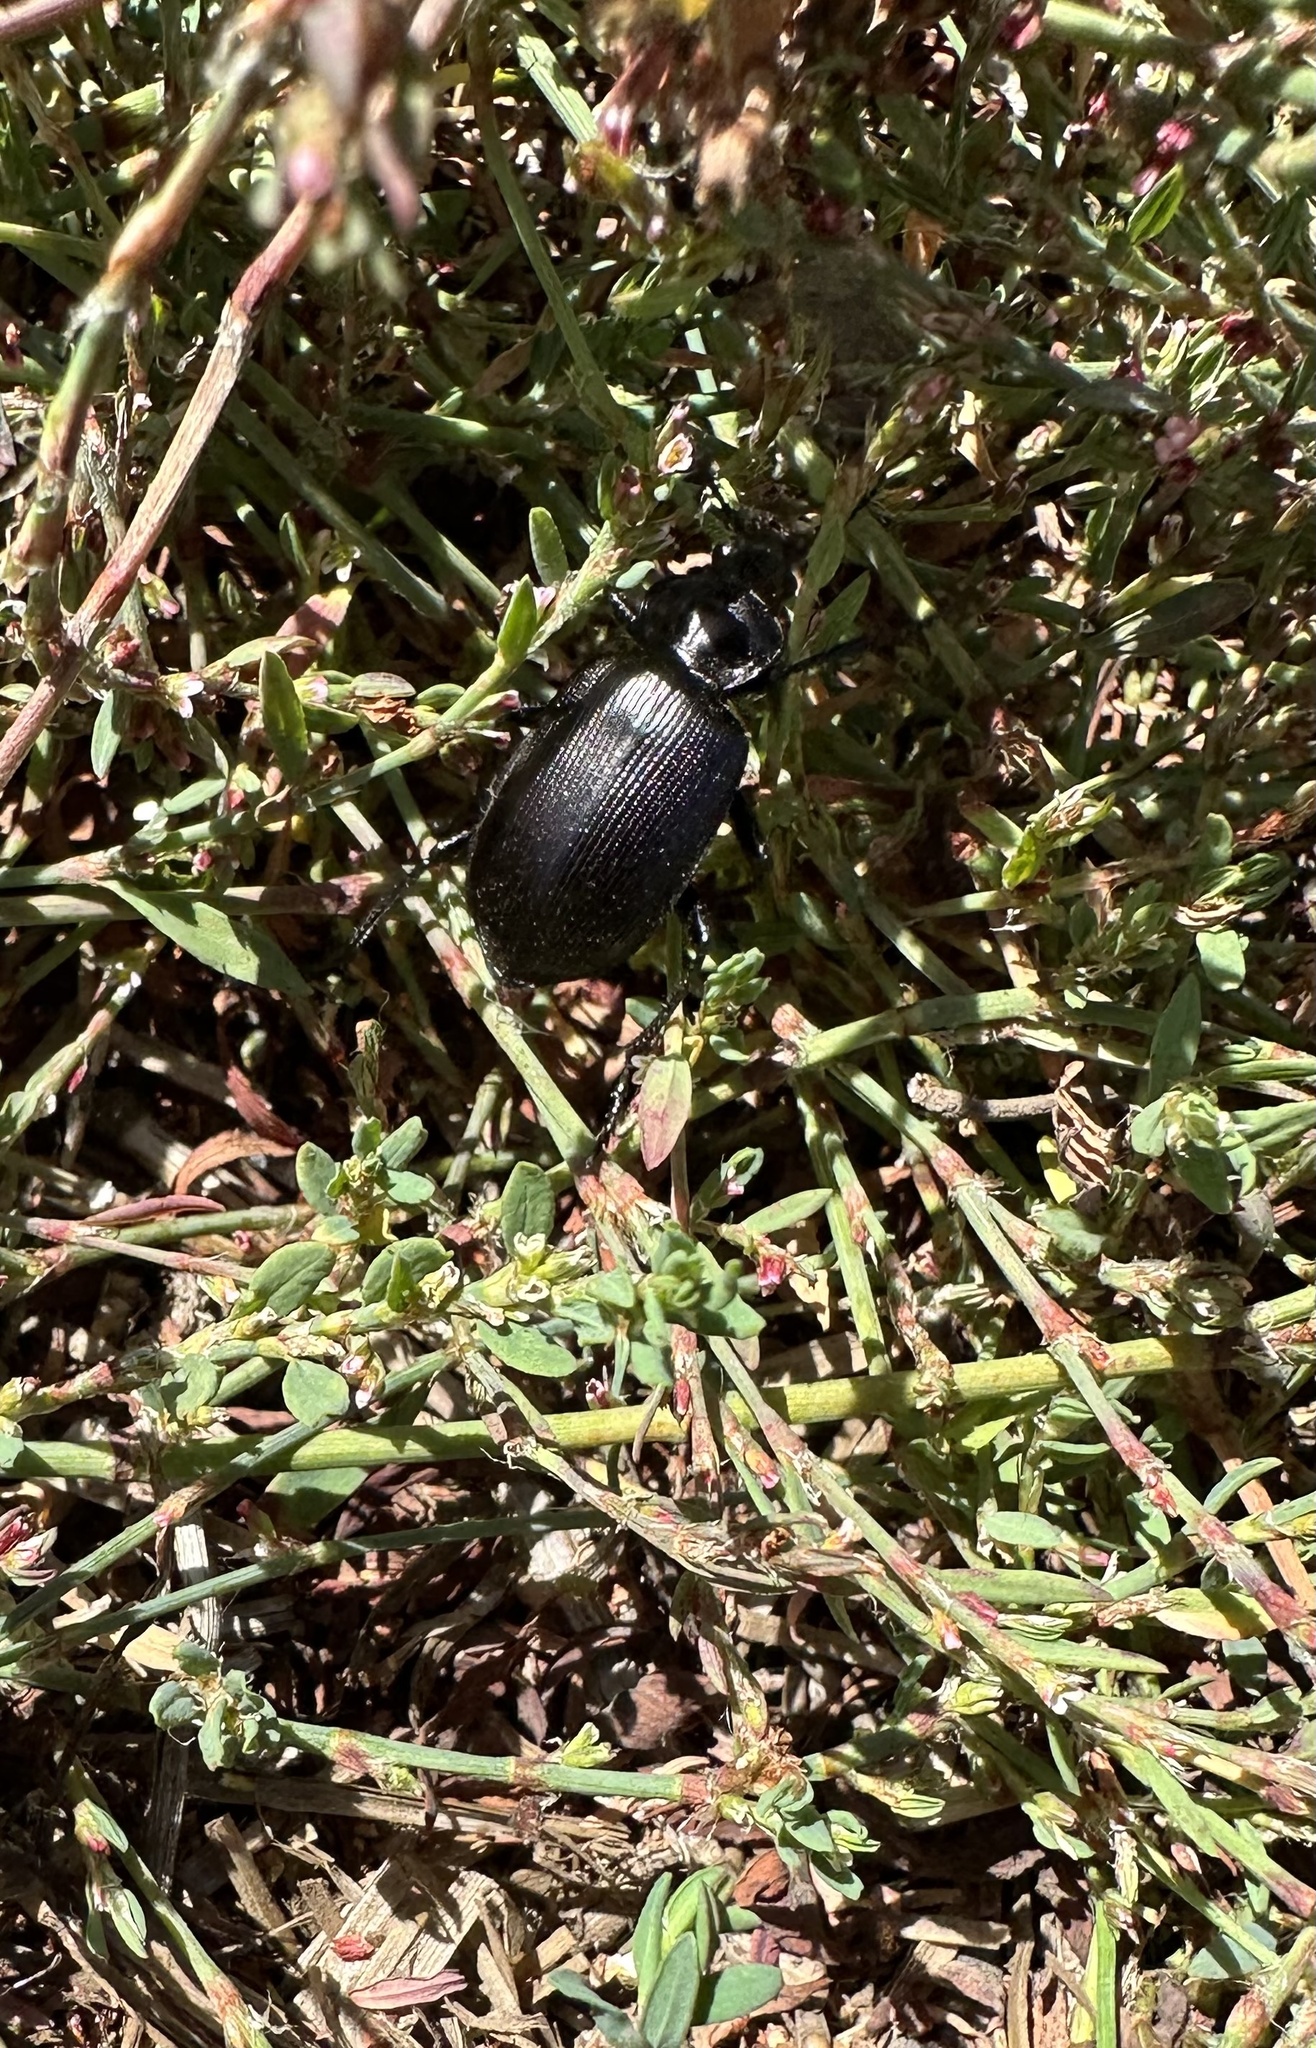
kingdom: Animalia
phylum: Arthropoda
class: Insecta
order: Coleoptera
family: Carabidae
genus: Calosoma
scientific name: Calosoma vagans
